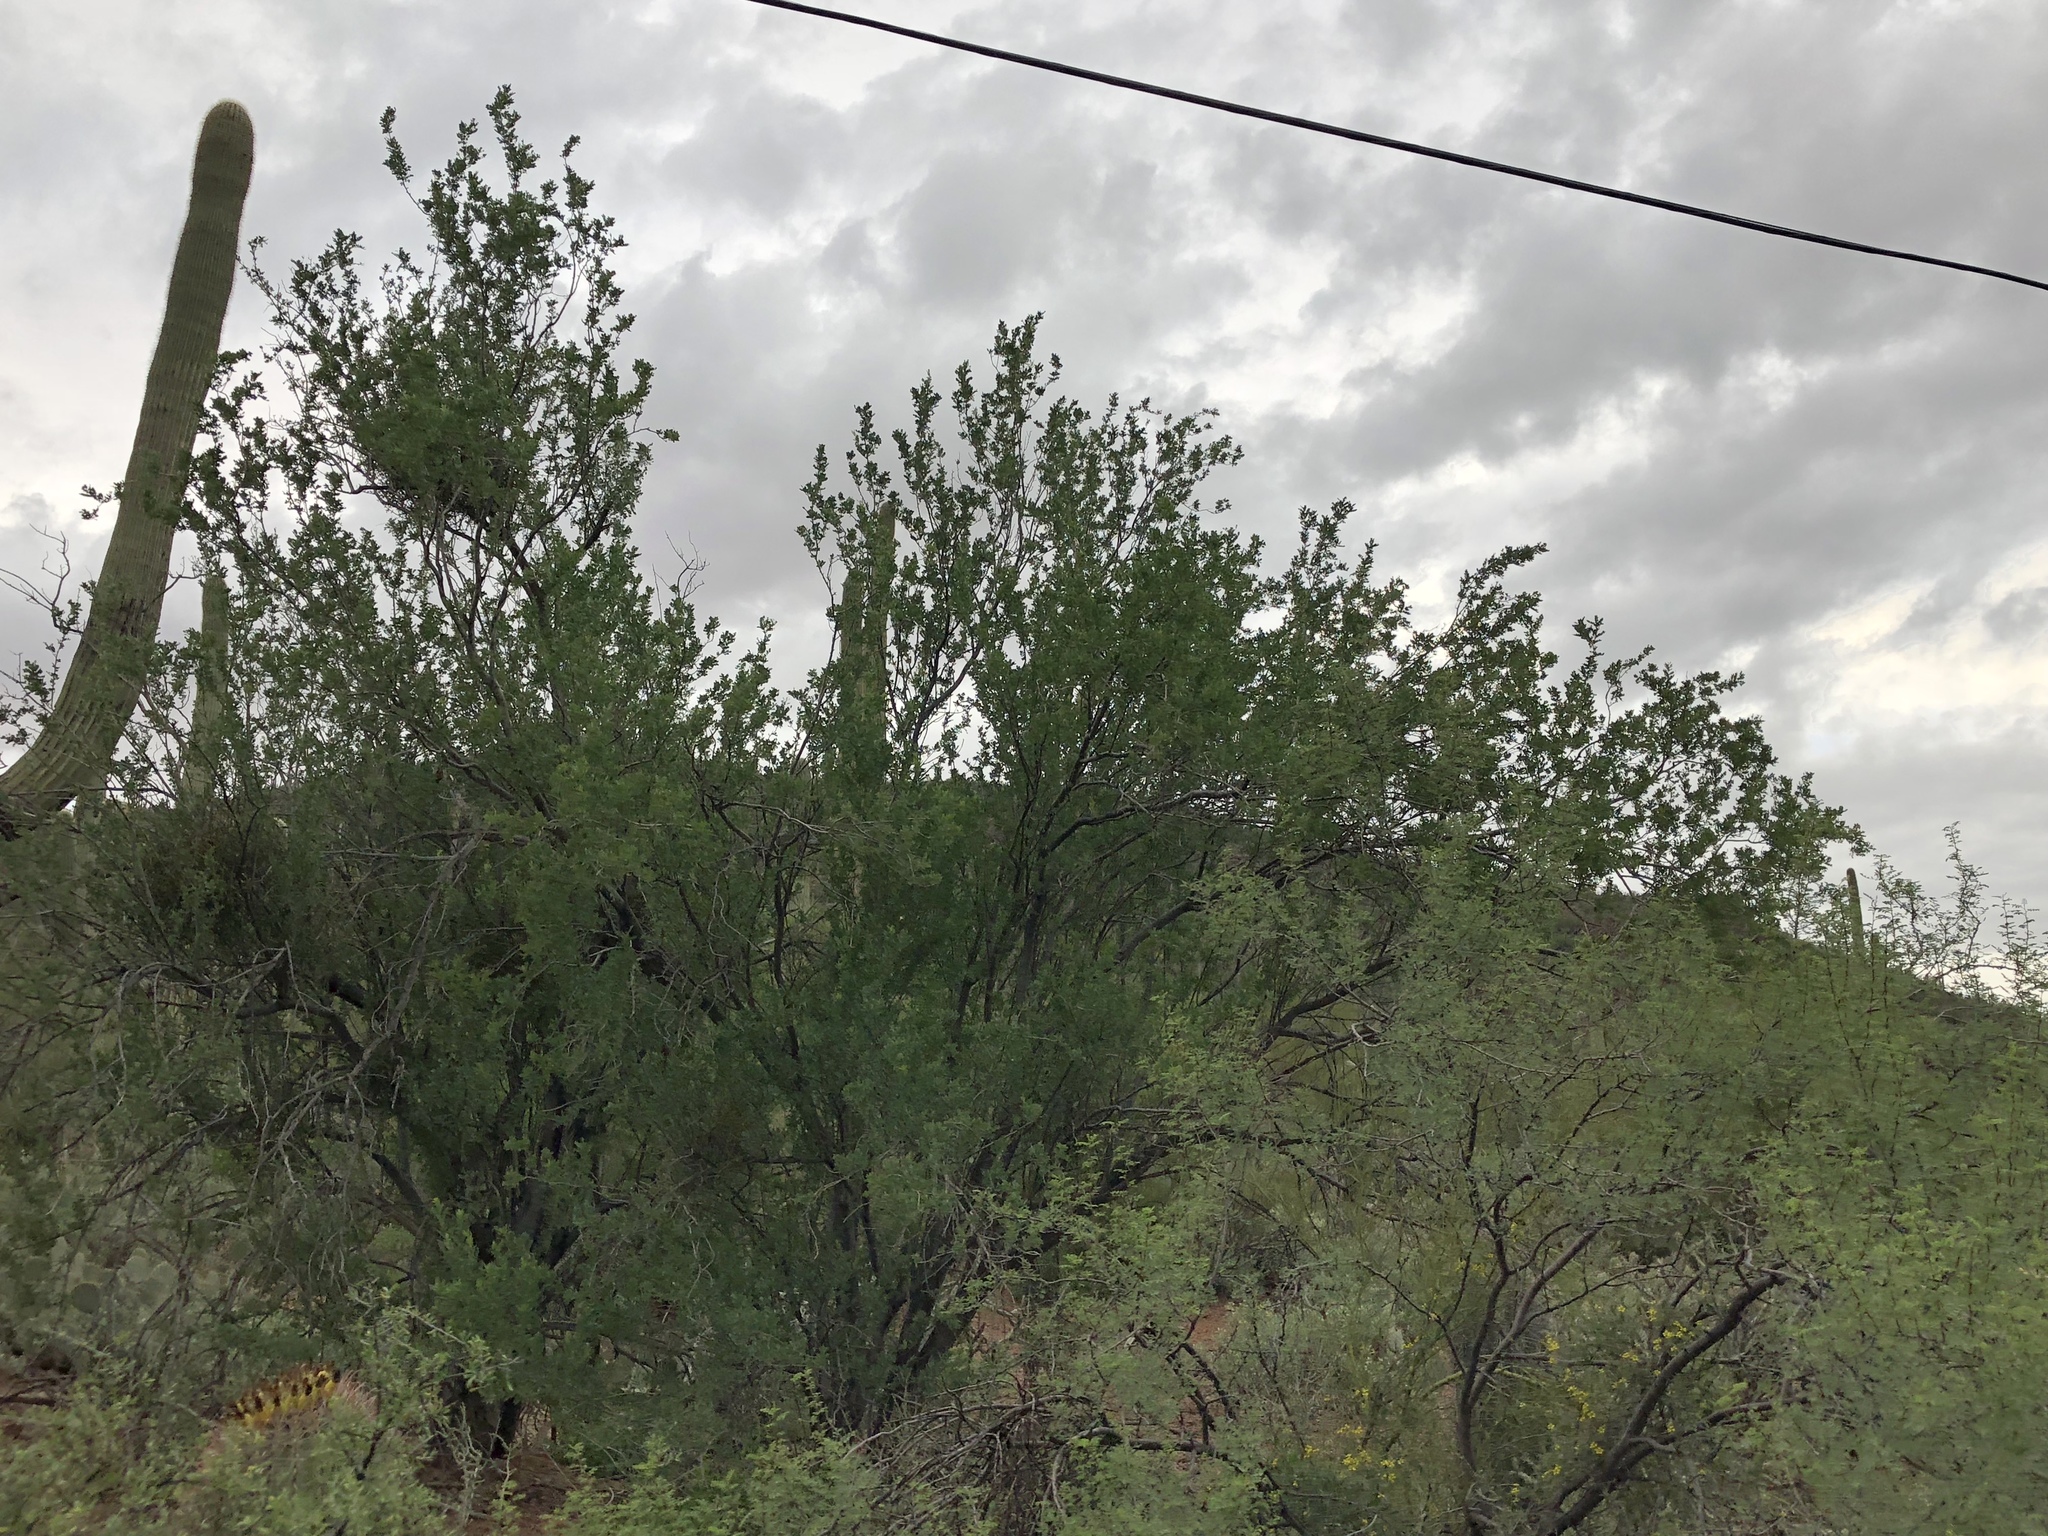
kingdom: Plantae
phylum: Tracheophyta
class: Magnoliopsida
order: Fabales
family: Fabaceae
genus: Olneya
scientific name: Olneya tesota
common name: Desert ironwood
